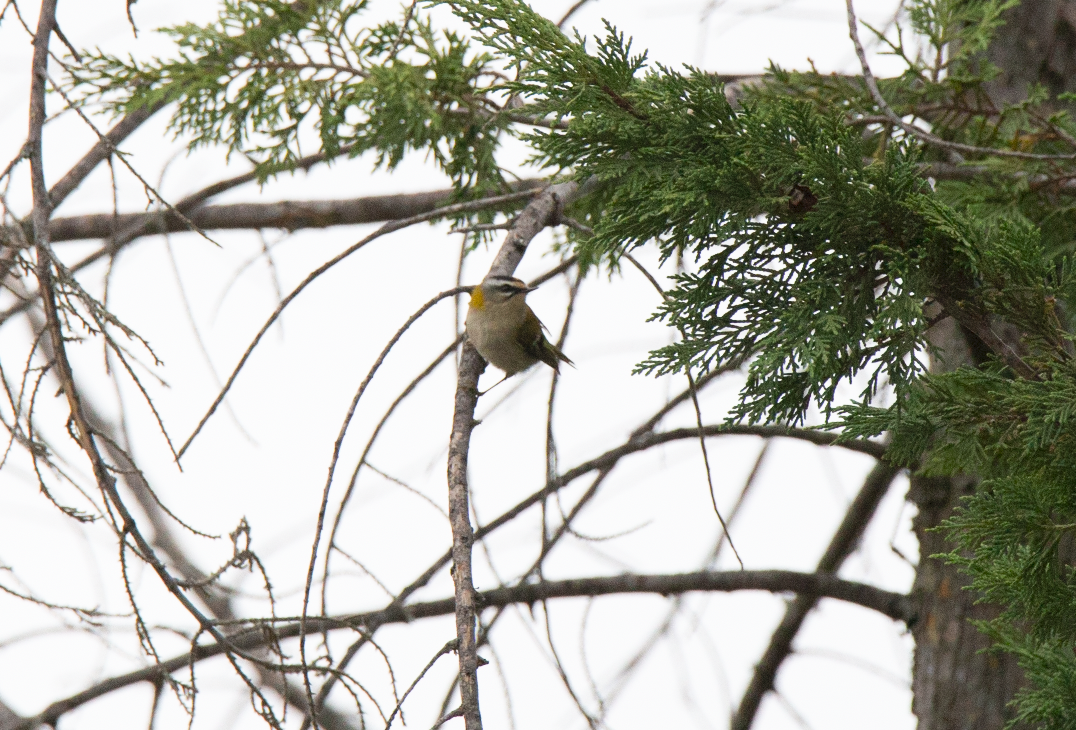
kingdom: Animalia
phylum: Chordata
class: Aves
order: Passeriformes
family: Regulidae
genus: Regulus
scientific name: Regulus ignicapilla
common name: Firecrest
